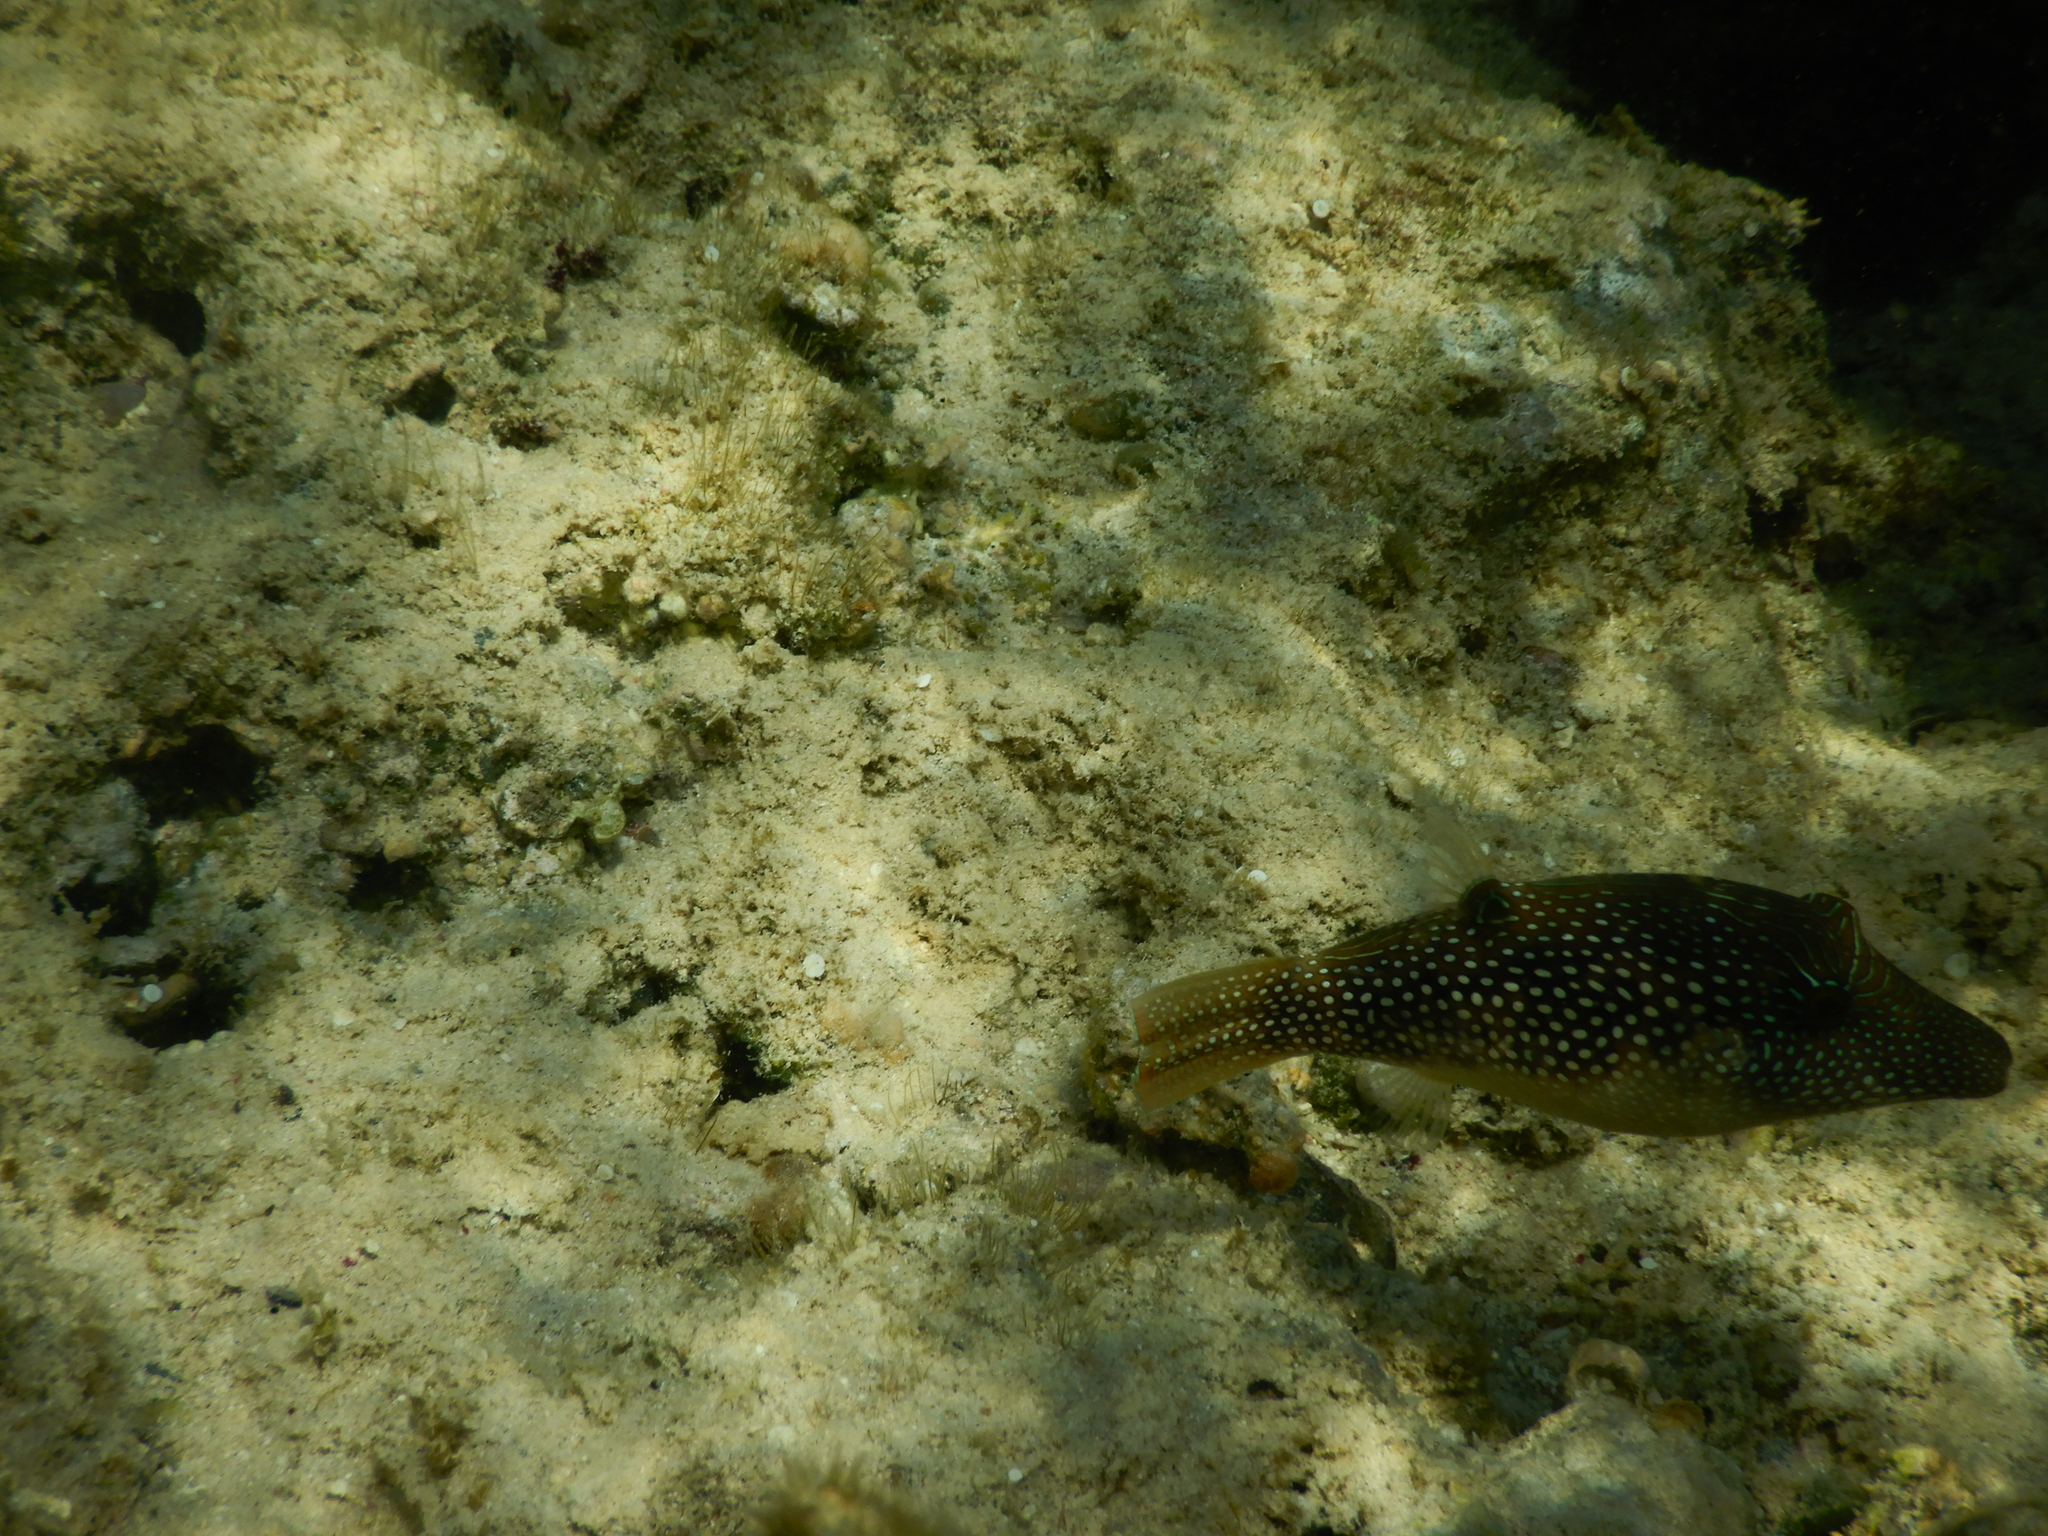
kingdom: Animalia
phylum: Chordata
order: Tetraodontiformes
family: Tetraodontidae
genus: Canthigaster
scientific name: Canthigaster margaritata
